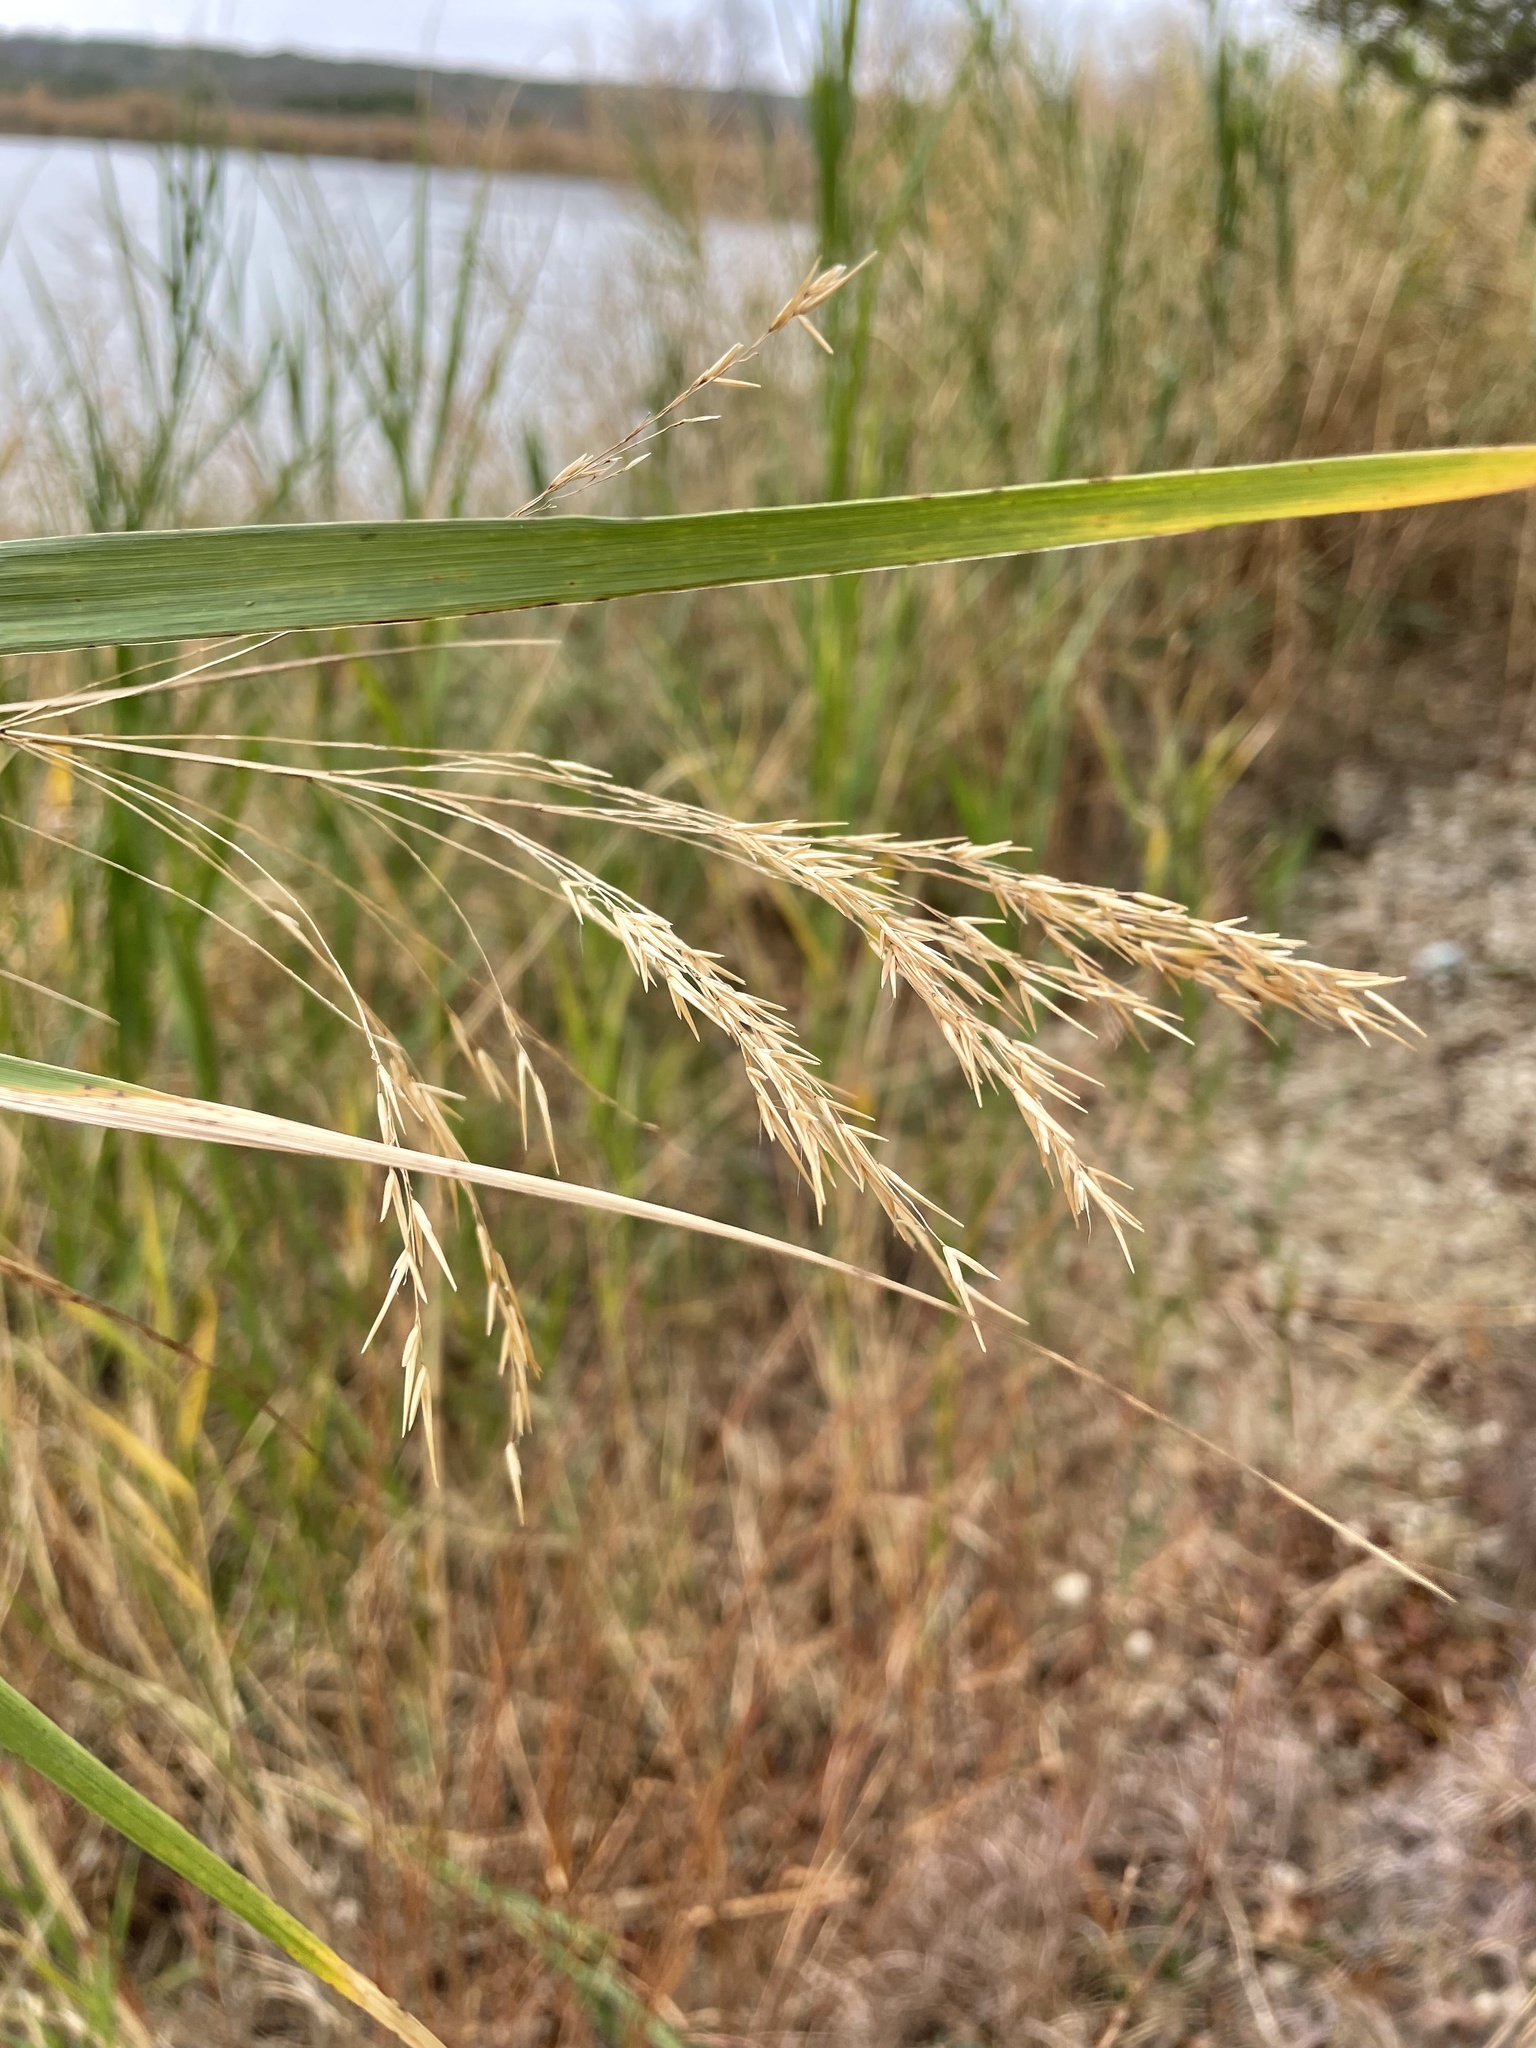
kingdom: Plantae
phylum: Tracheophyta
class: Liliopsida
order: Poales
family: Poaceae
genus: Phragmites
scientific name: Phragmites australis
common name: Common reed
